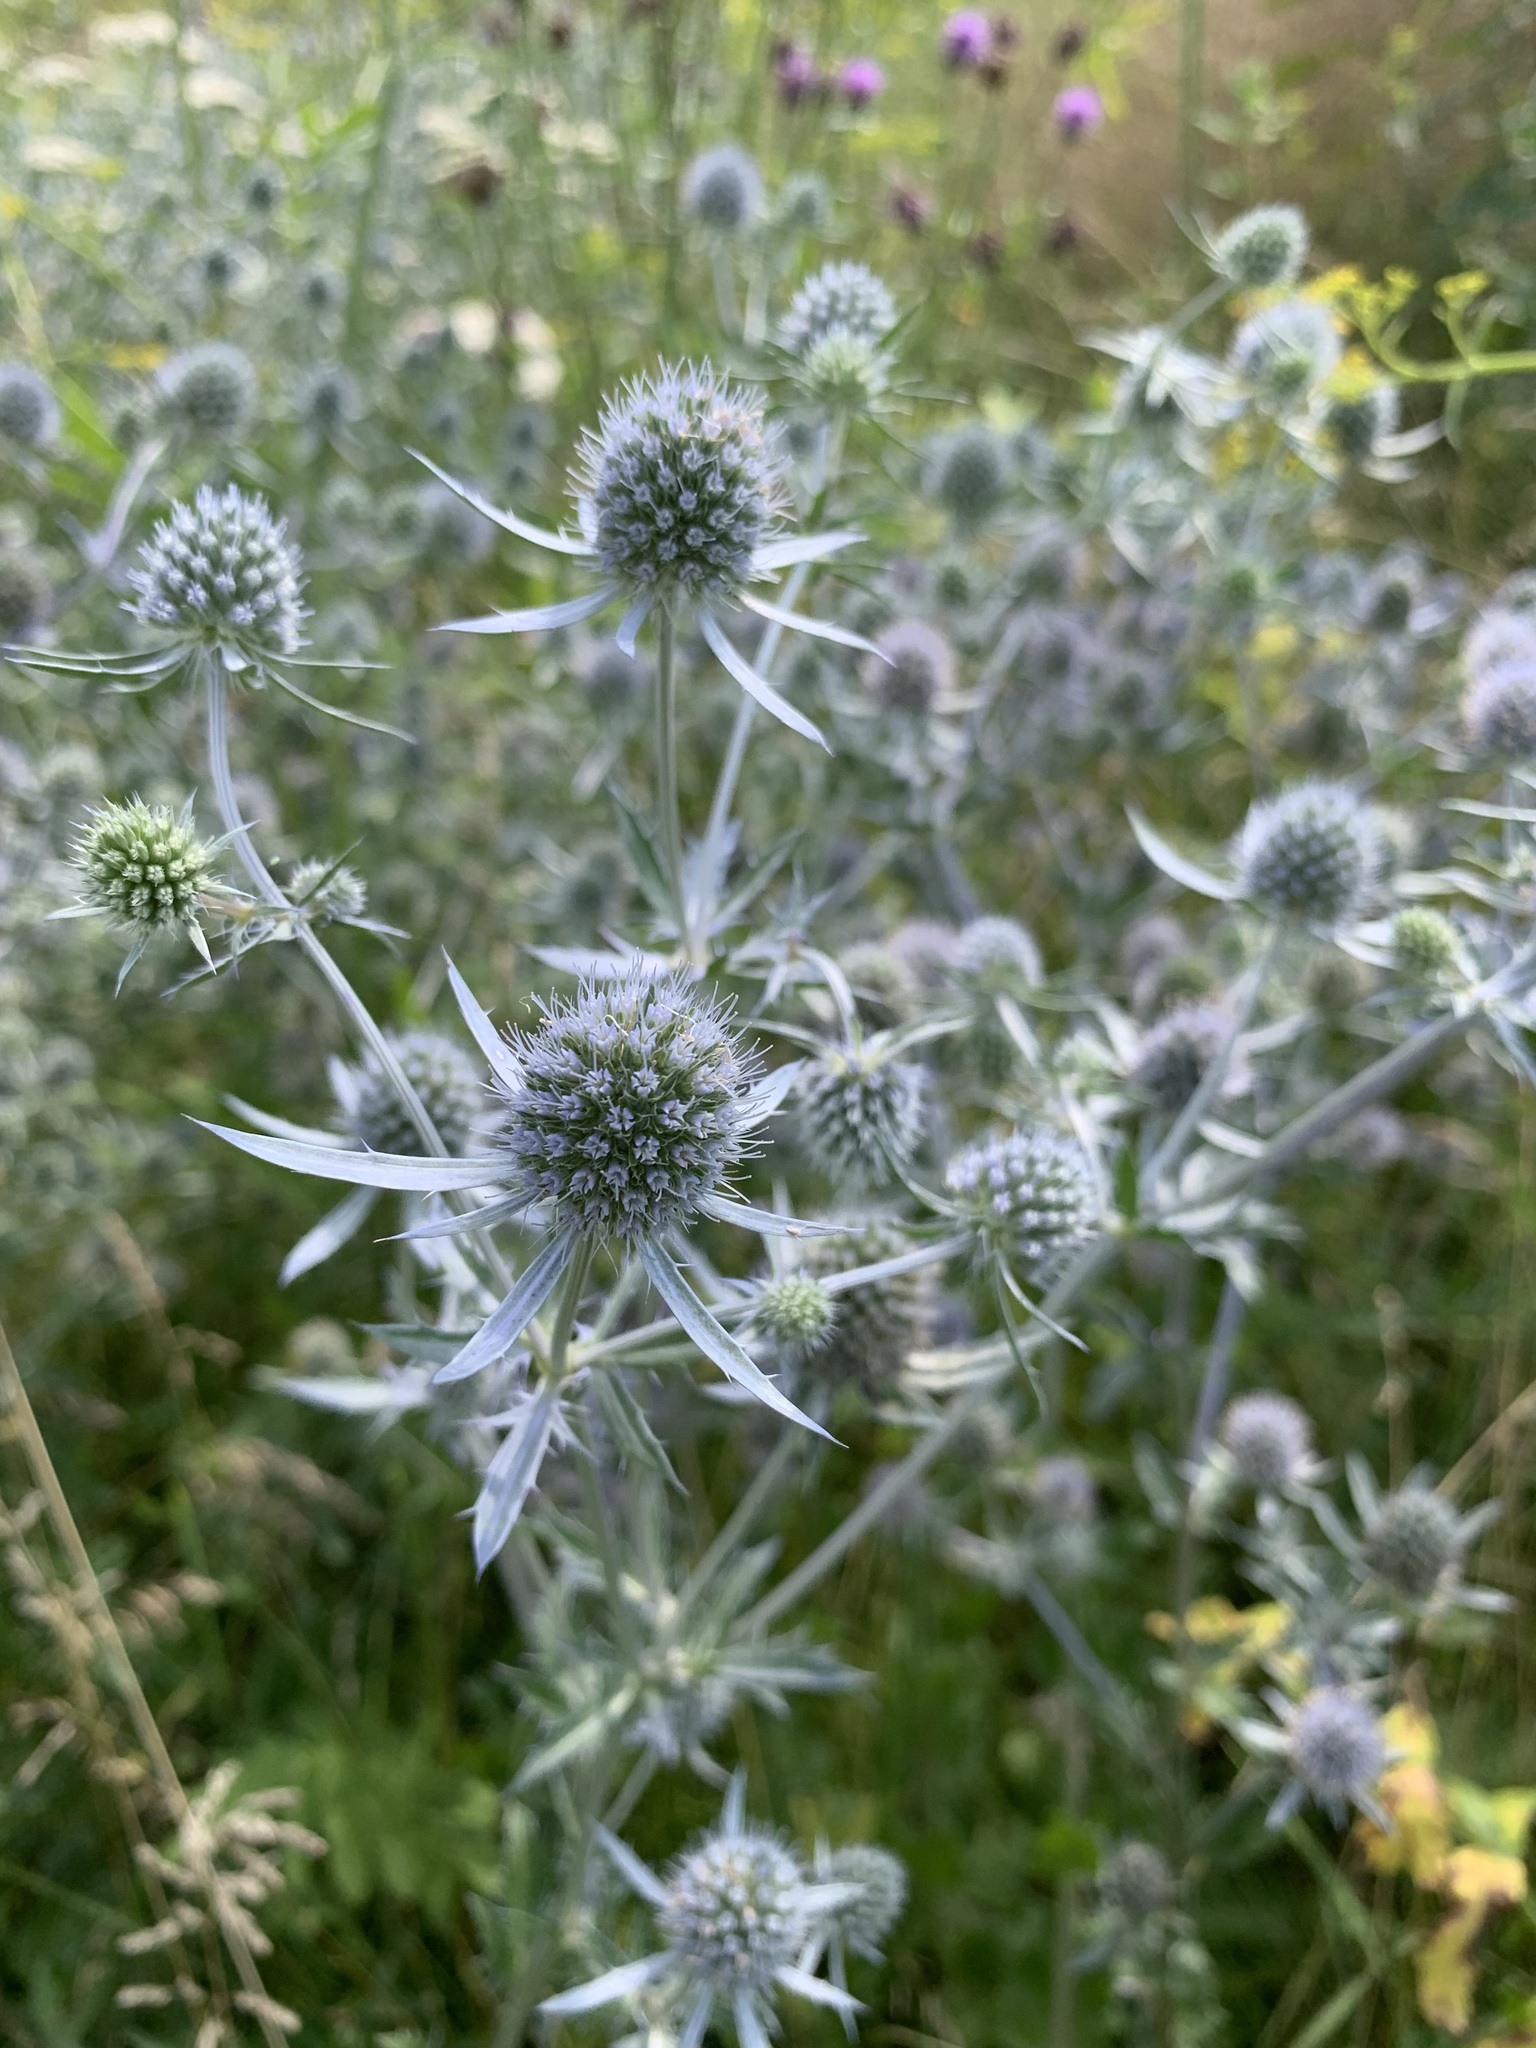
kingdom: Plantae
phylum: Tracheophyta
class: Magnoliopsida
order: Apiales
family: Apiaceae
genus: Eryngium
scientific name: Eryngium planum
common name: Blue eryngo
